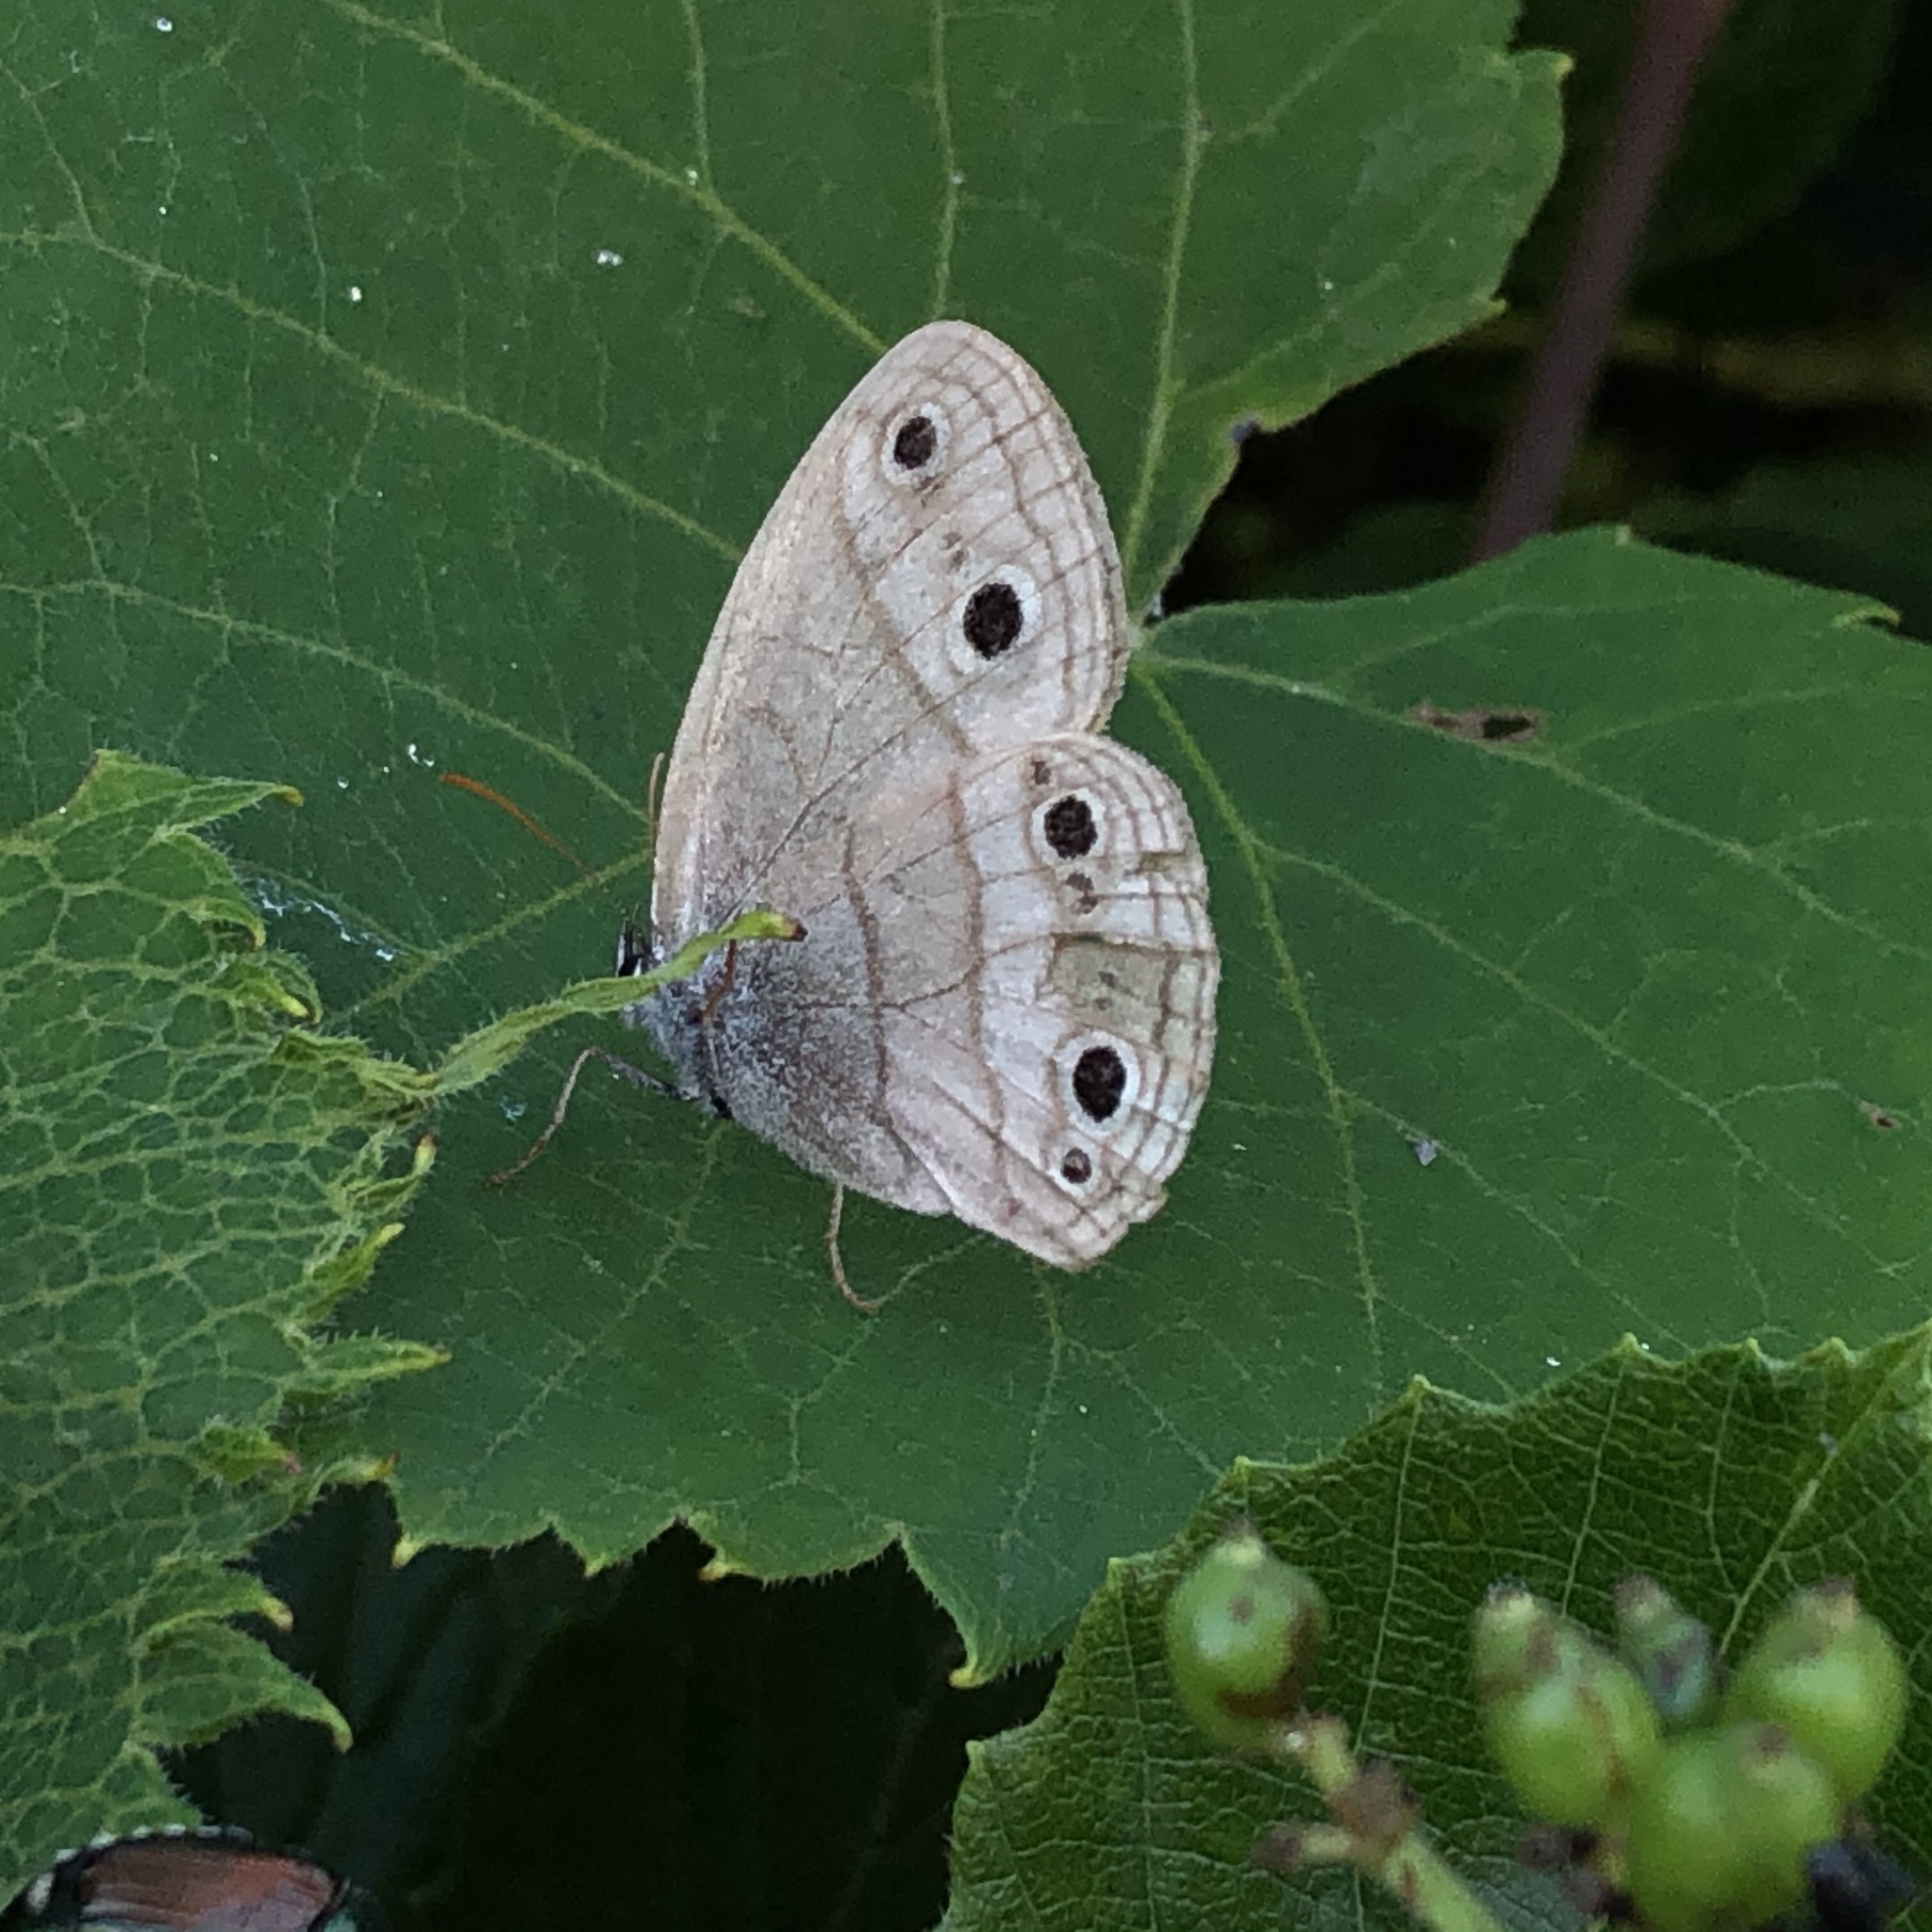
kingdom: Animalia
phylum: Arthropoda
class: Insecta
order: Lepidoptera
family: Nymphalidae
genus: Euptychia
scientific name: Euptychia cymela
